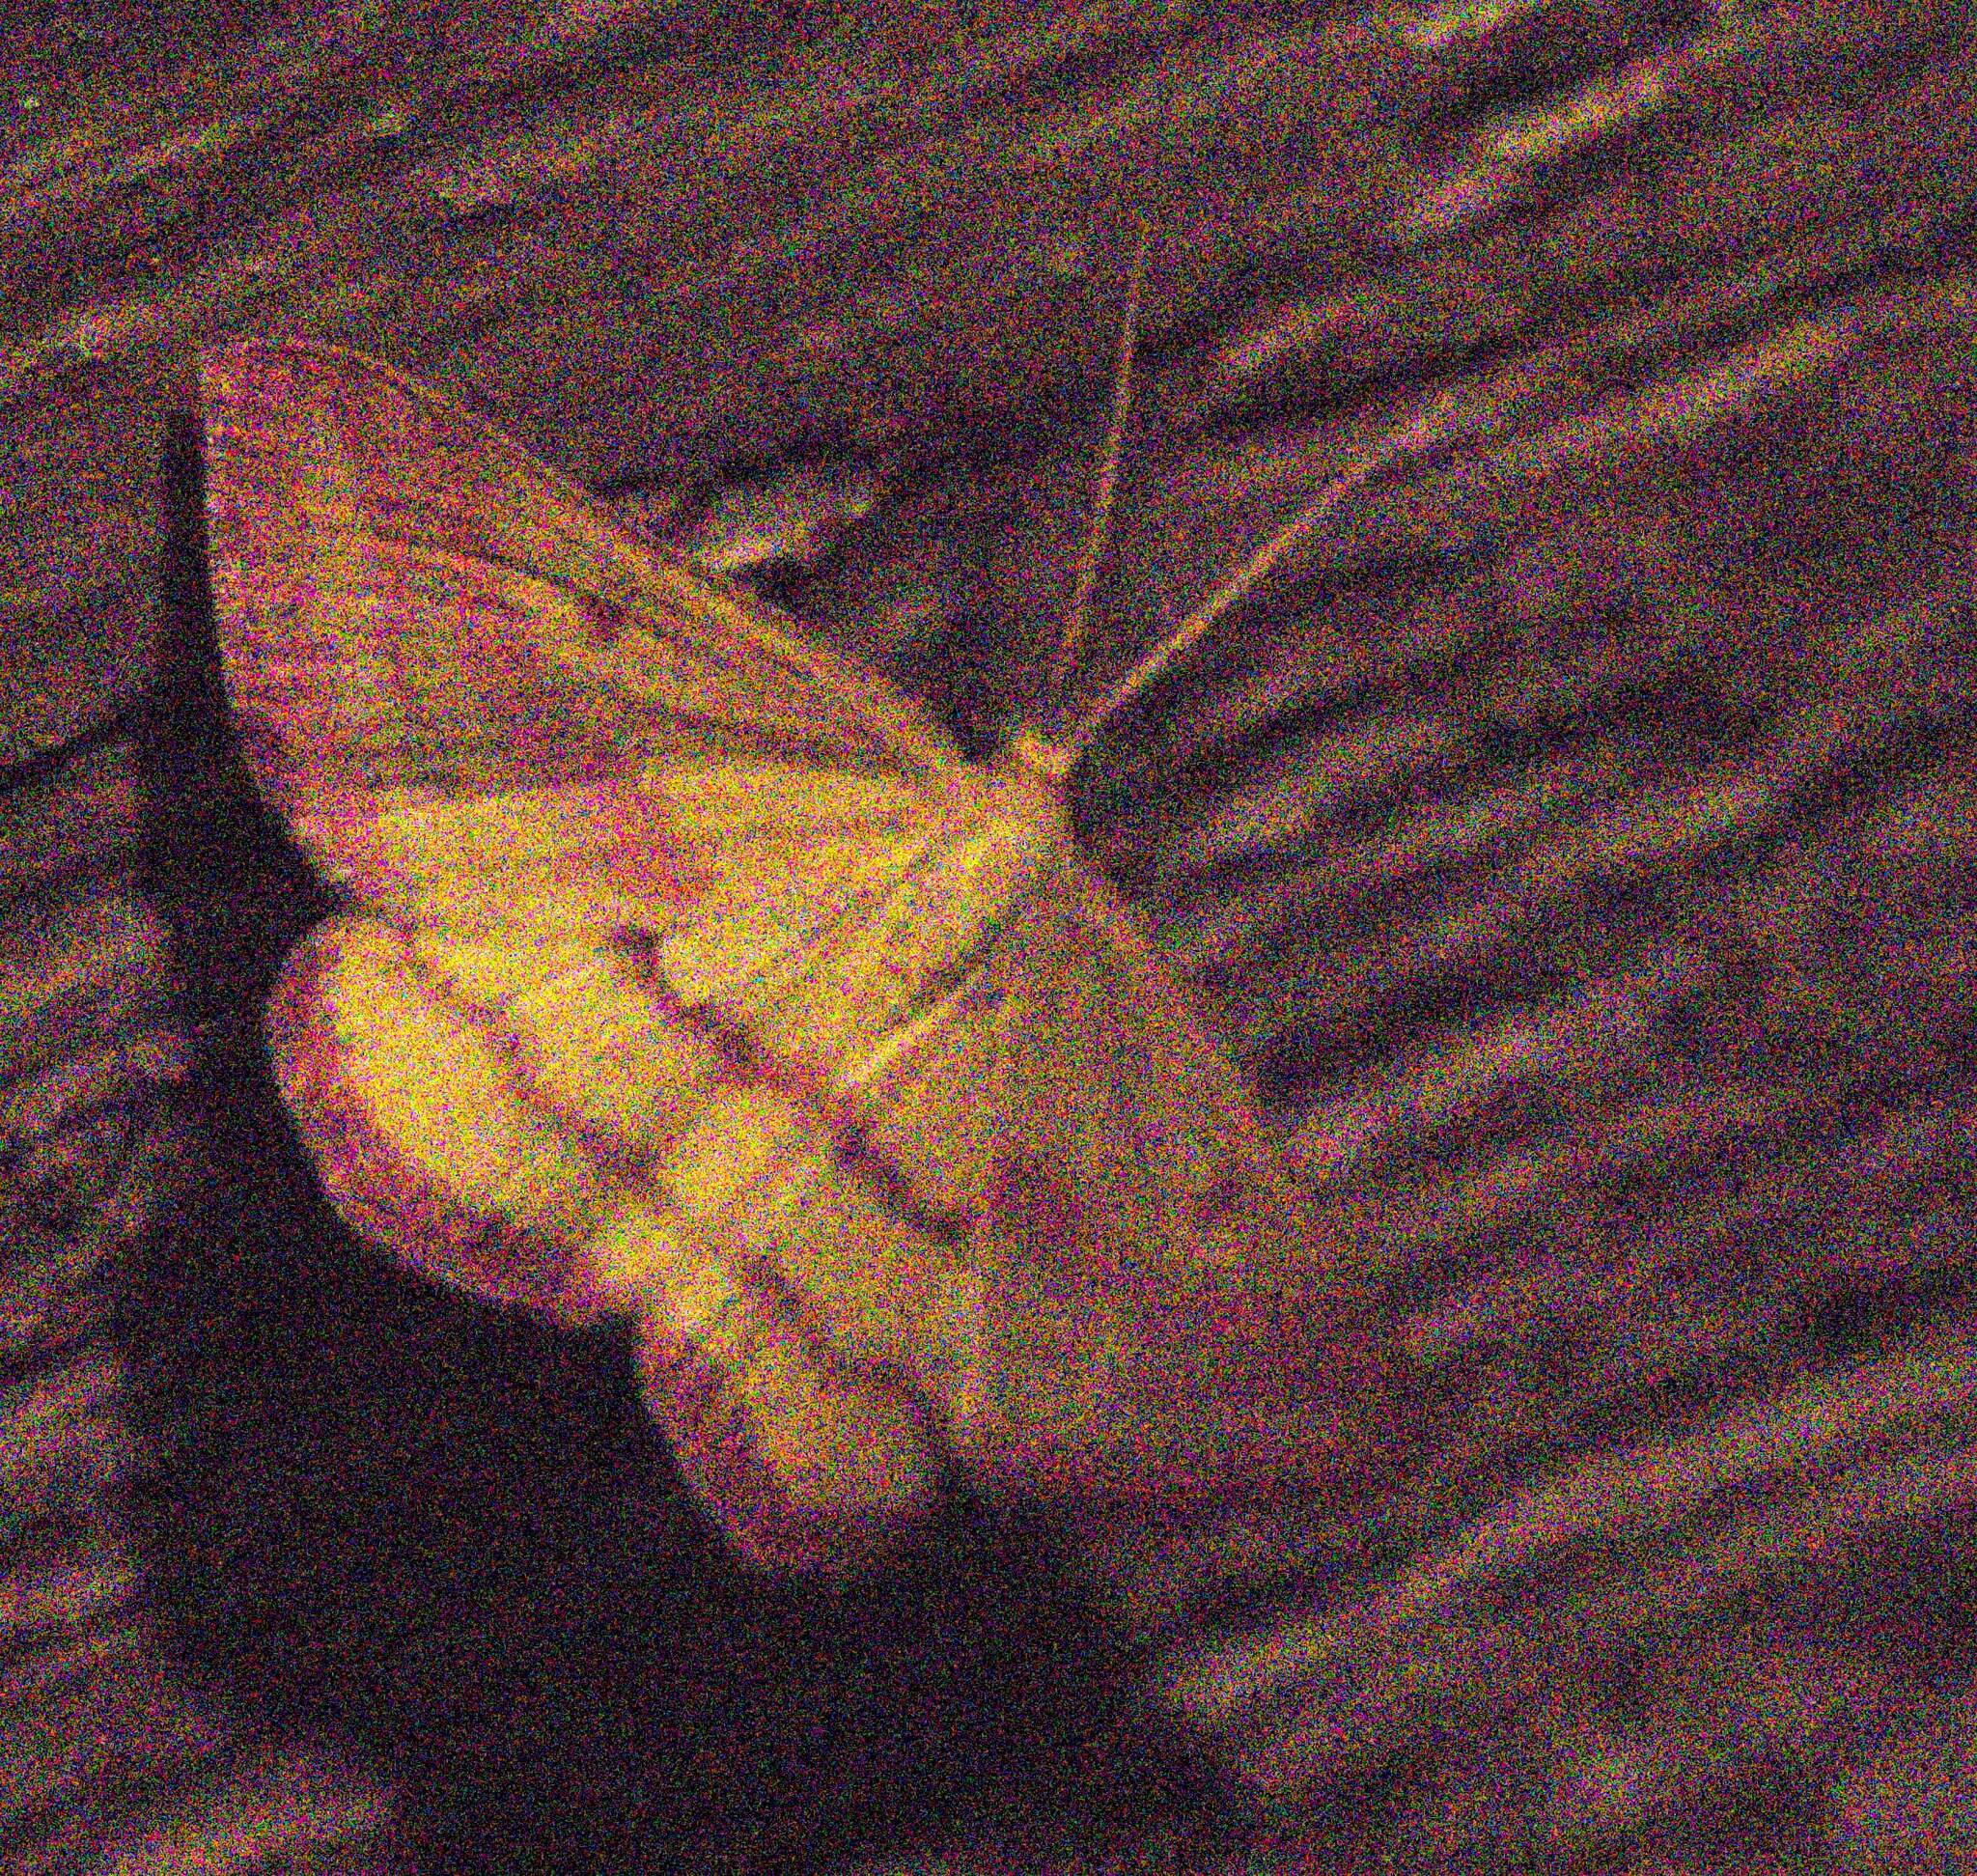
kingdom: Animalia
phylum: Arthropoda
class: Insecta
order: Lepidoptera
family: Geometridae
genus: Haematopis
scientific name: Haematopis grataria
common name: Chickweed geometer
